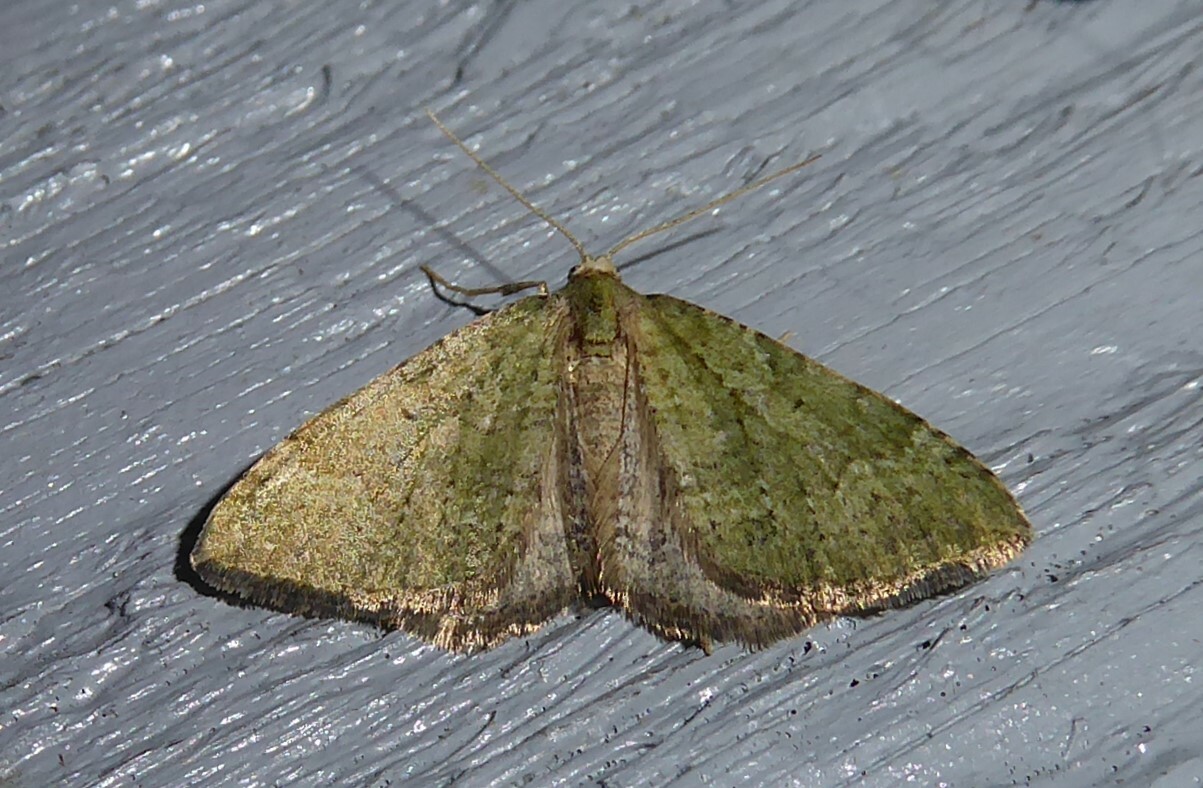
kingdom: Animalia
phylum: Arthropoda
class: Insecta
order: Lepidoptera
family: Geometridae
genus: Epyaxa
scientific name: Epyaxa rosearia
